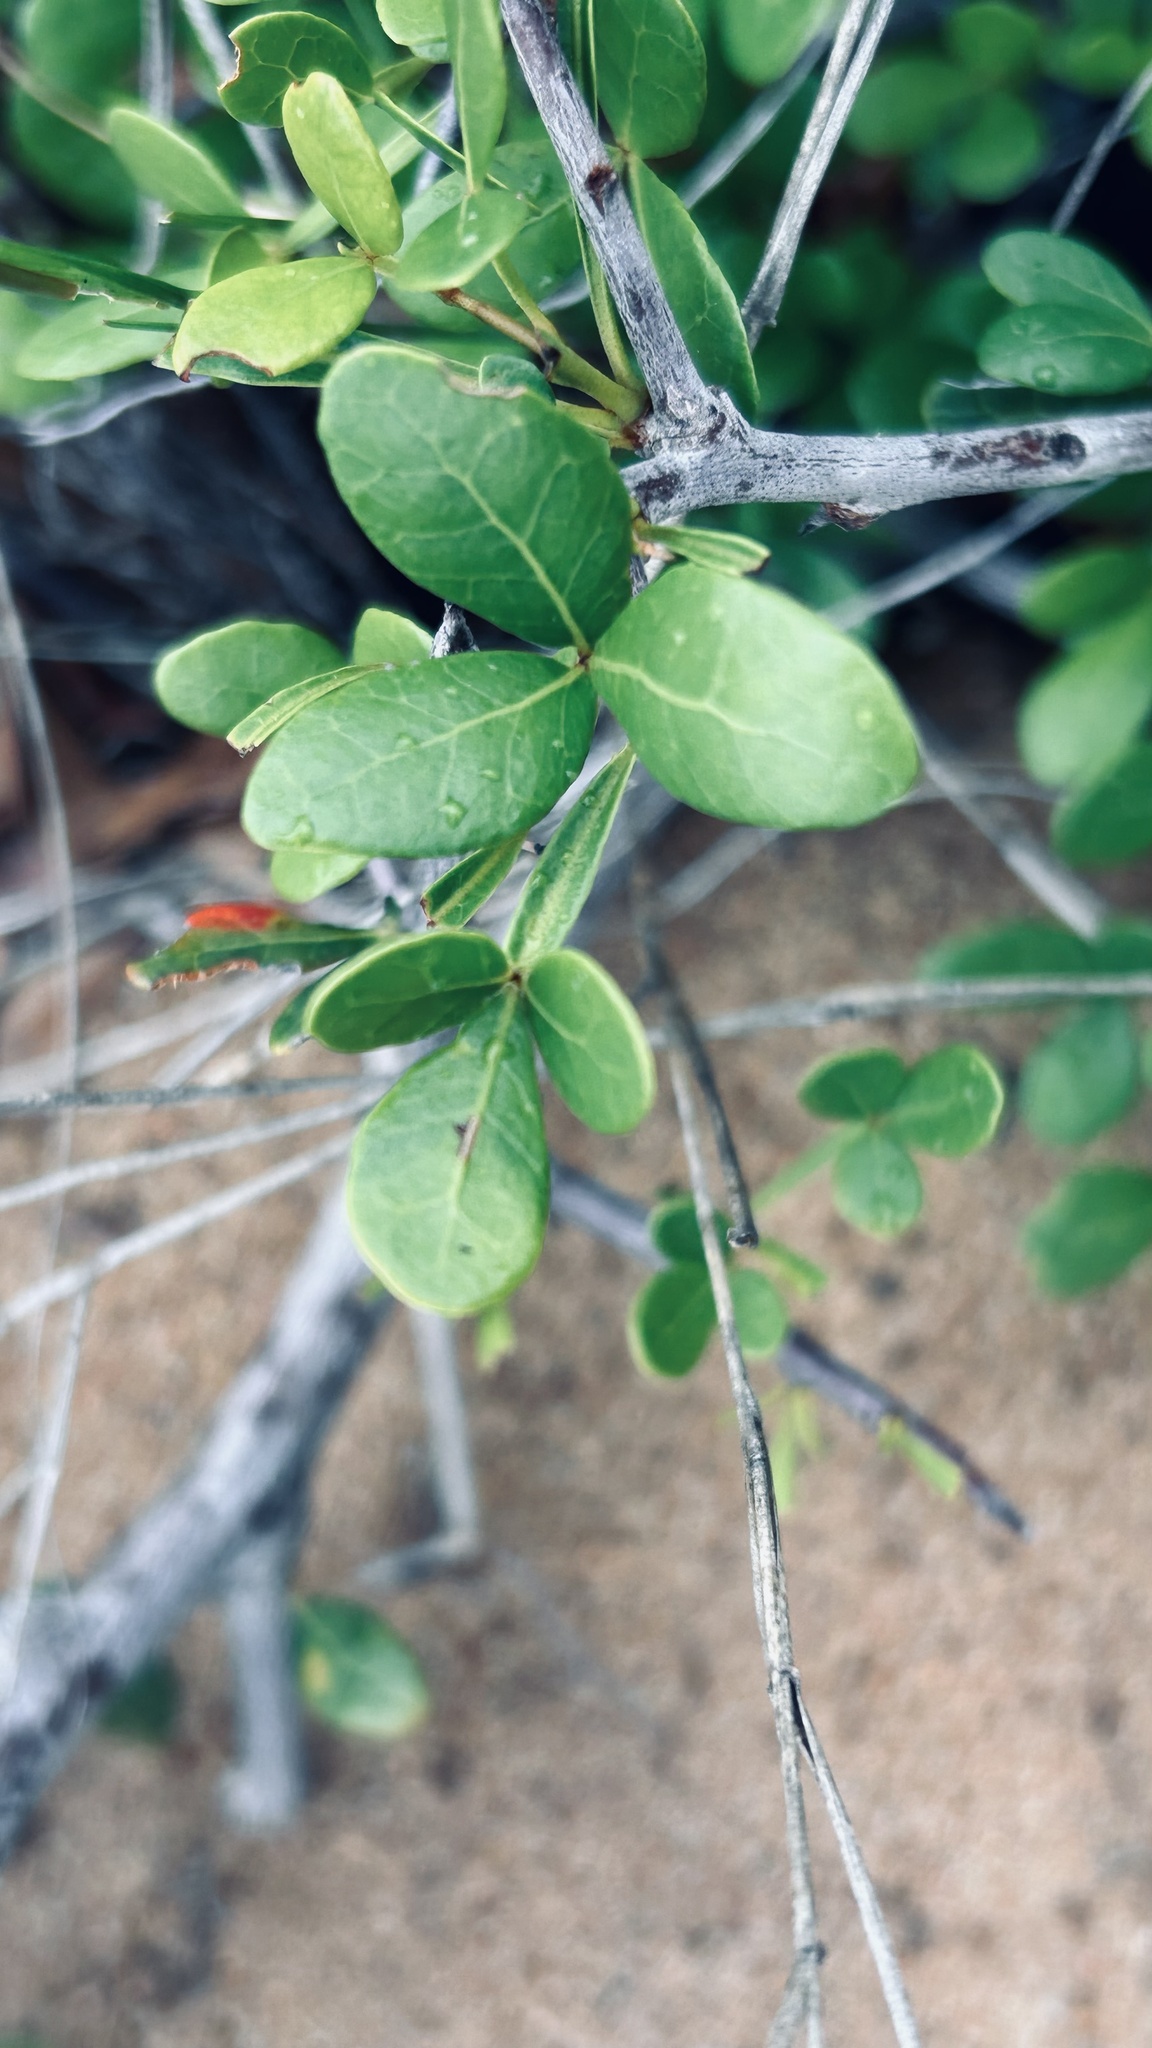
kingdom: Plantae
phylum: Tracheophyta
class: Magnoliopsida
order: Sapindales
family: Anacardiaceae
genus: Searsia
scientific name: Searsia pterota
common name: Winged currant
